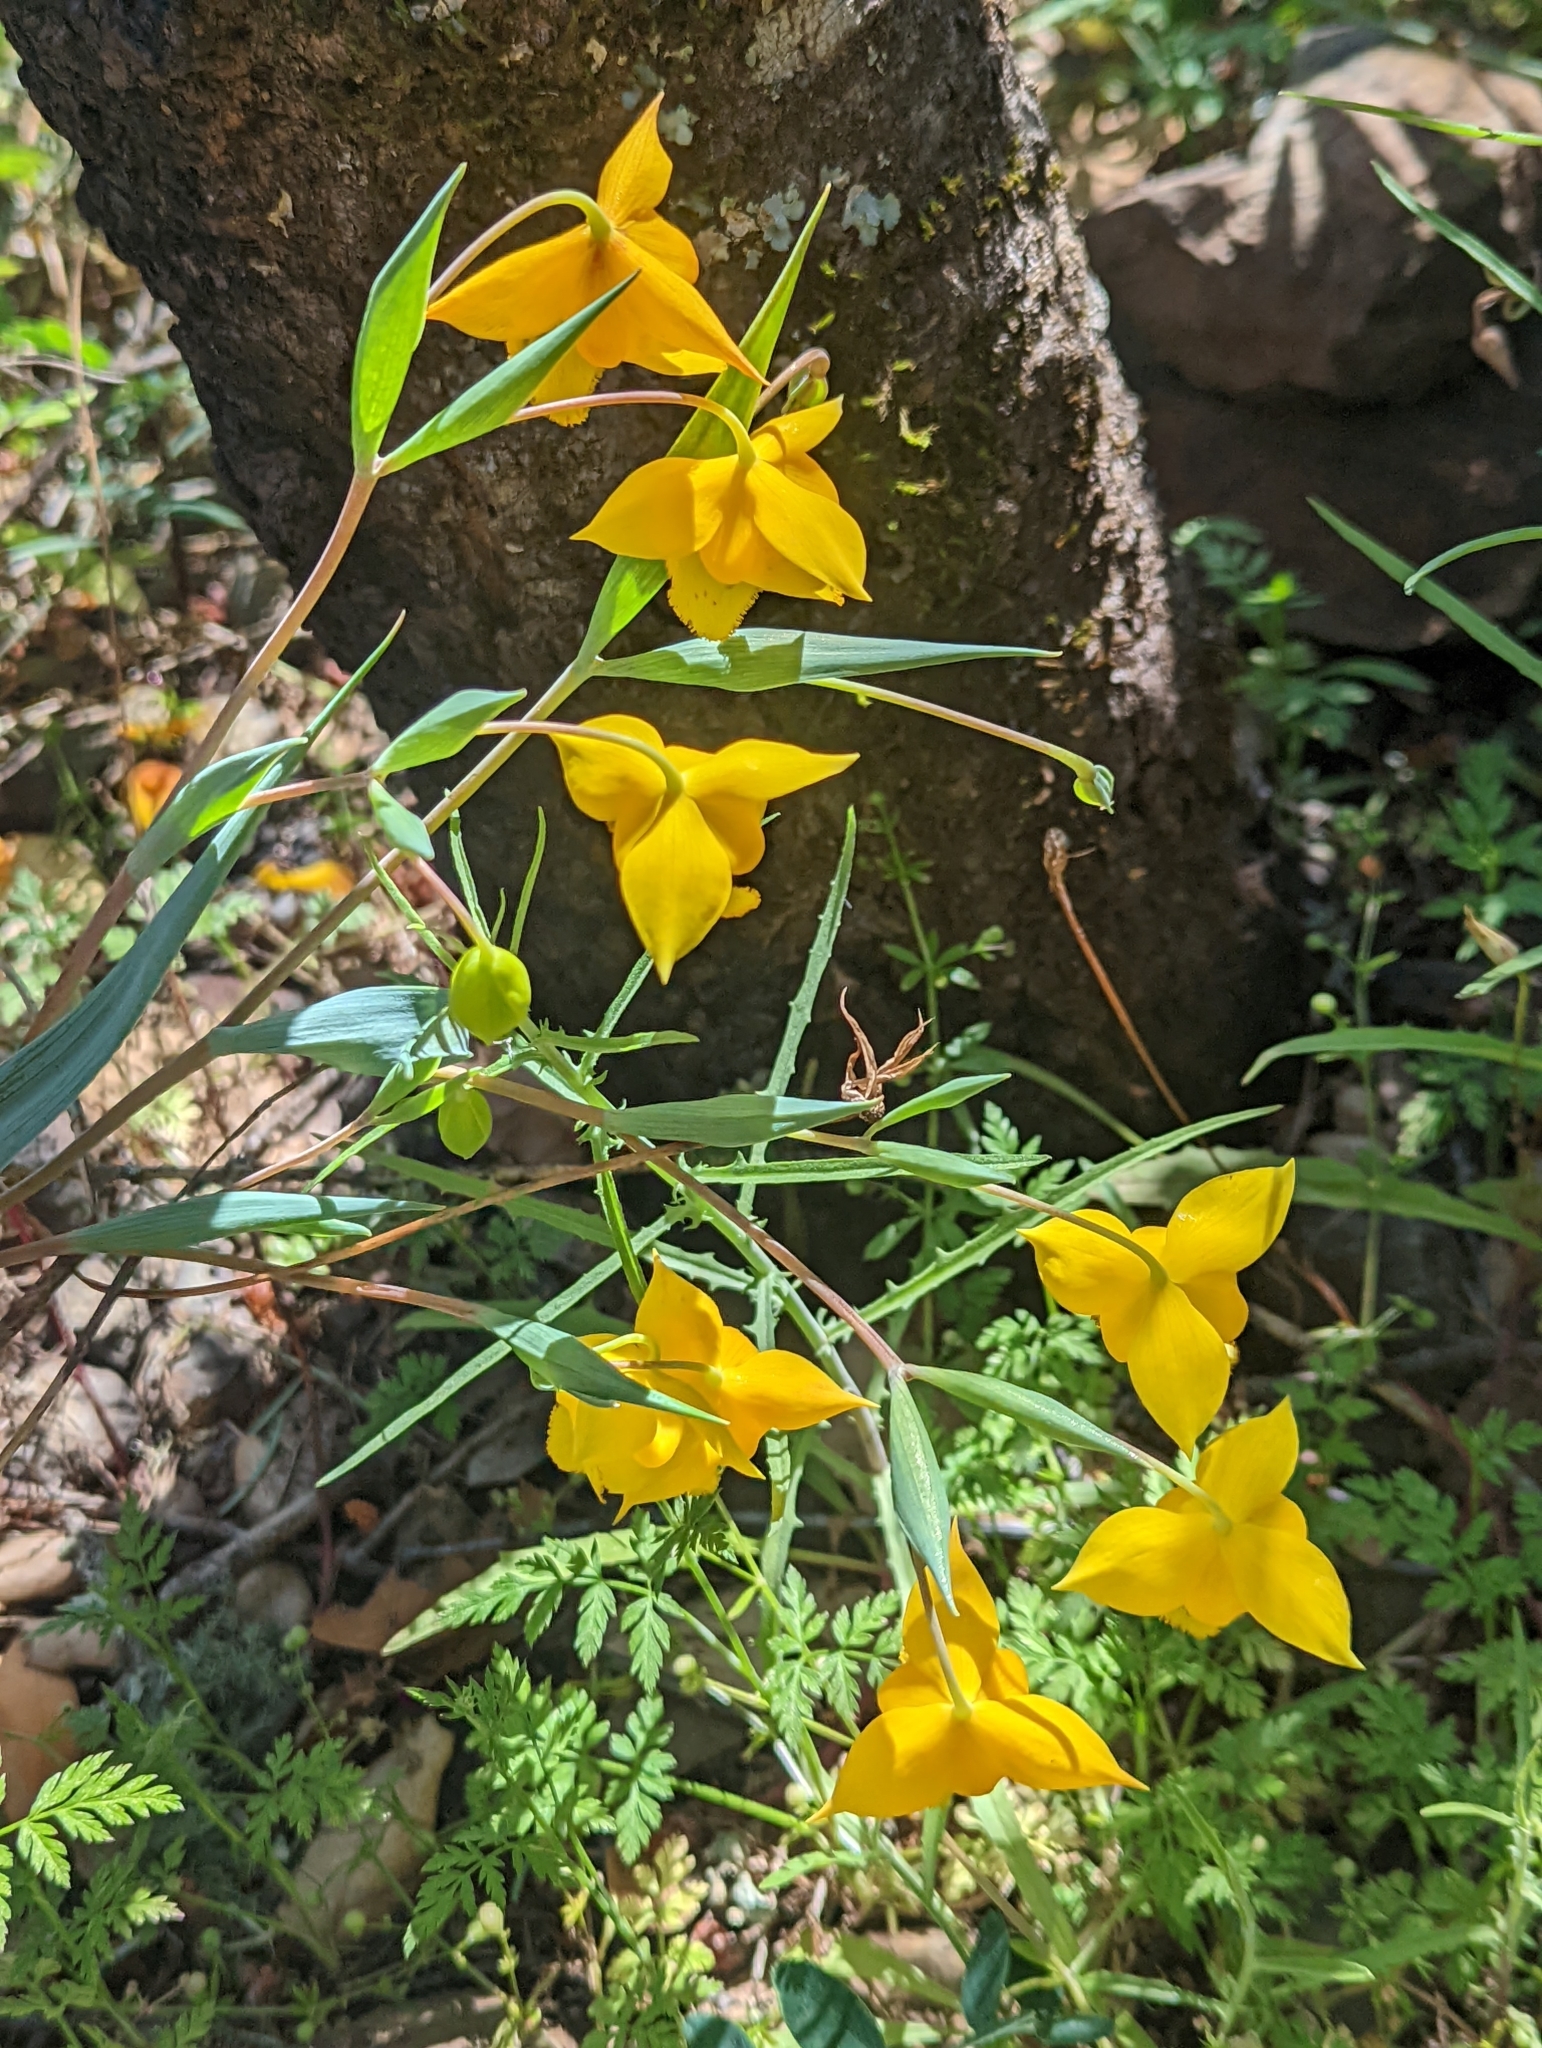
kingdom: Plantae
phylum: Tracheophyta
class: Liliopsida
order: Liliales
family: Liliaceae
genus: Calochortus
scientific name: Calochortus amabilis
